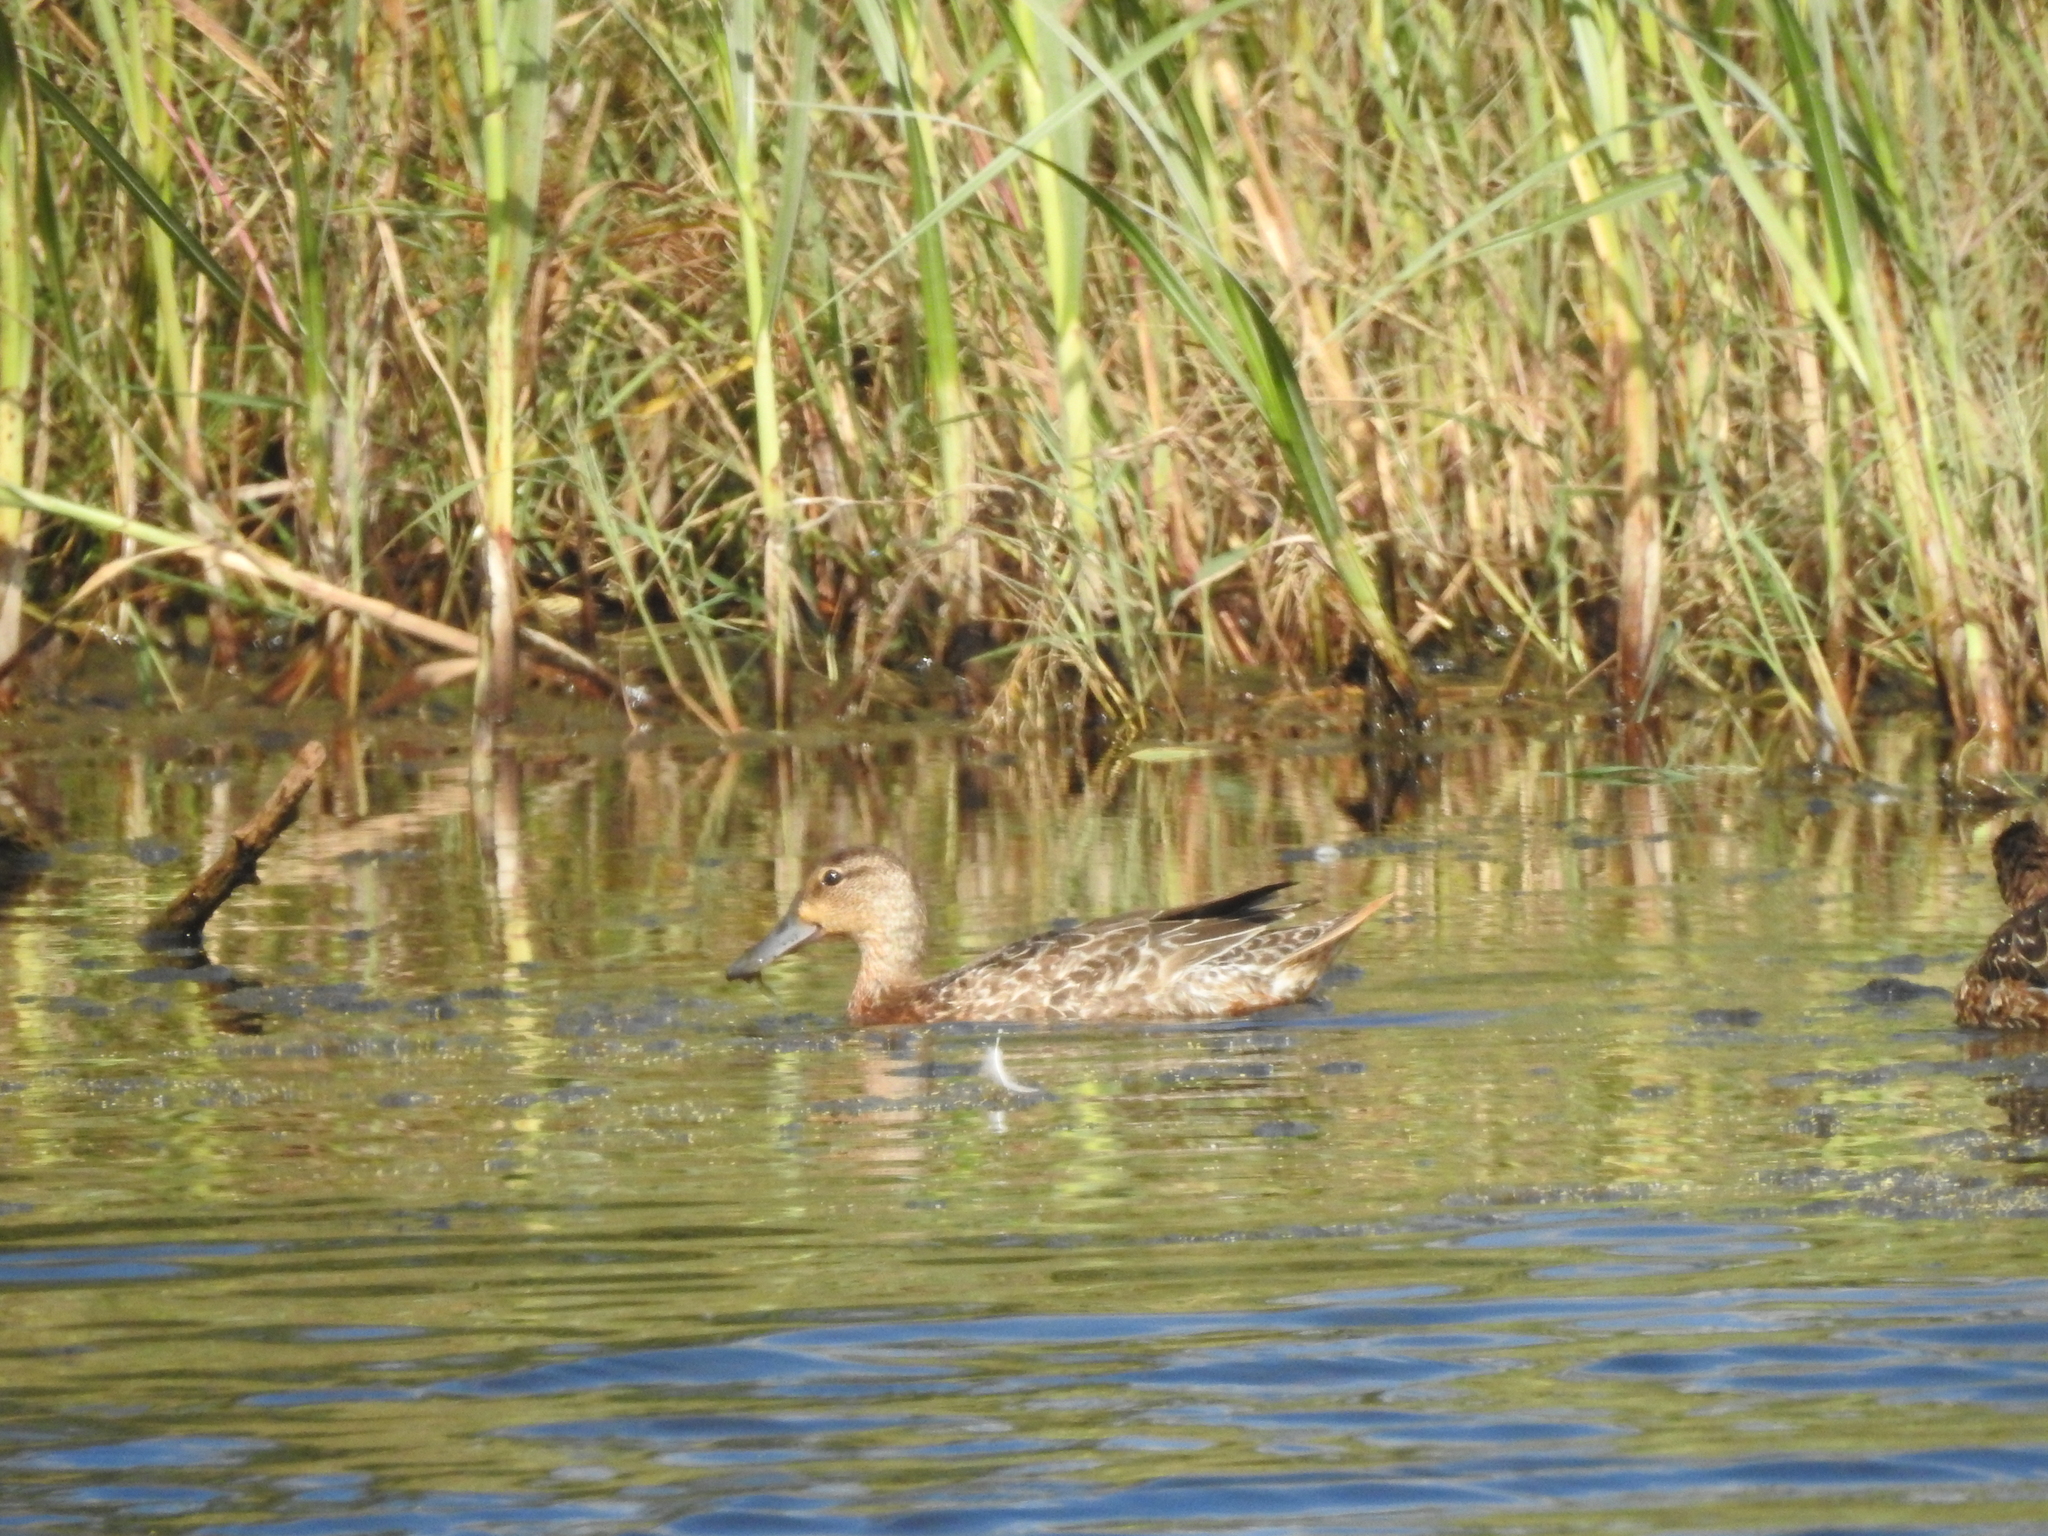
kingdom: Animalia
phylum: Chordata
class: Aves
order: Anseriformes
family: Anatidae
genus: Spatula
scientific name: Spatula discors
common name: Blue-winged teal
